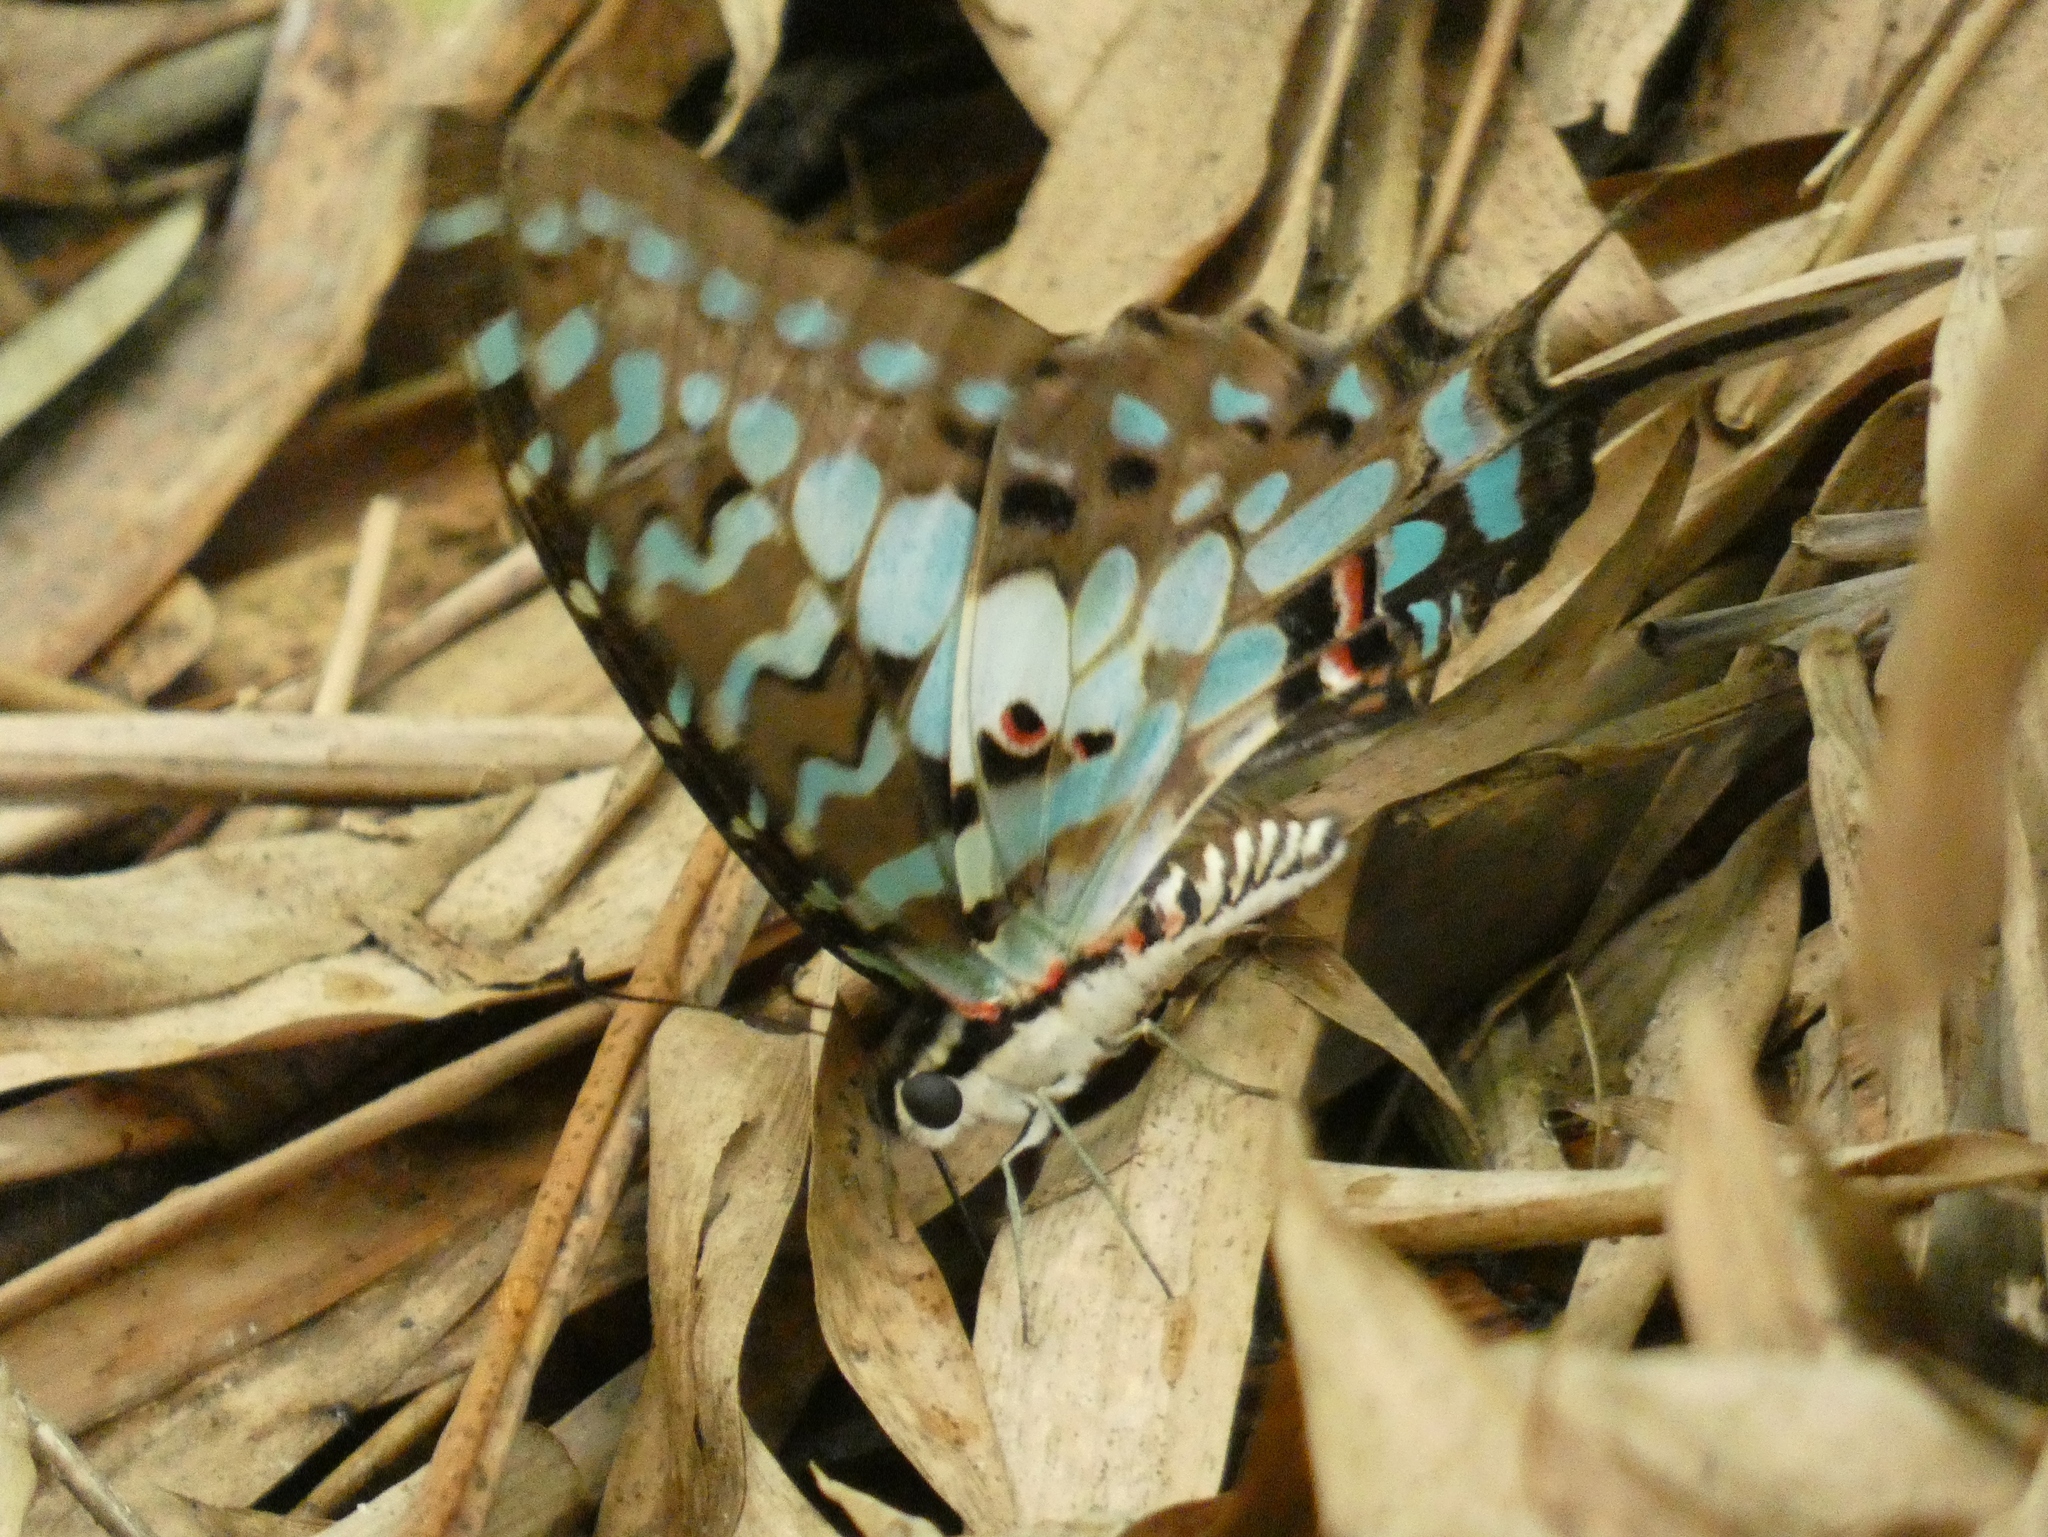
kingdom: Animalia
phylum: Arthropoda
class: Insecta
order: Lepidoptera
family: Papilionidae
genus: Graphium
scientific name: Graphium antheus
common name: Large striped swordtail
